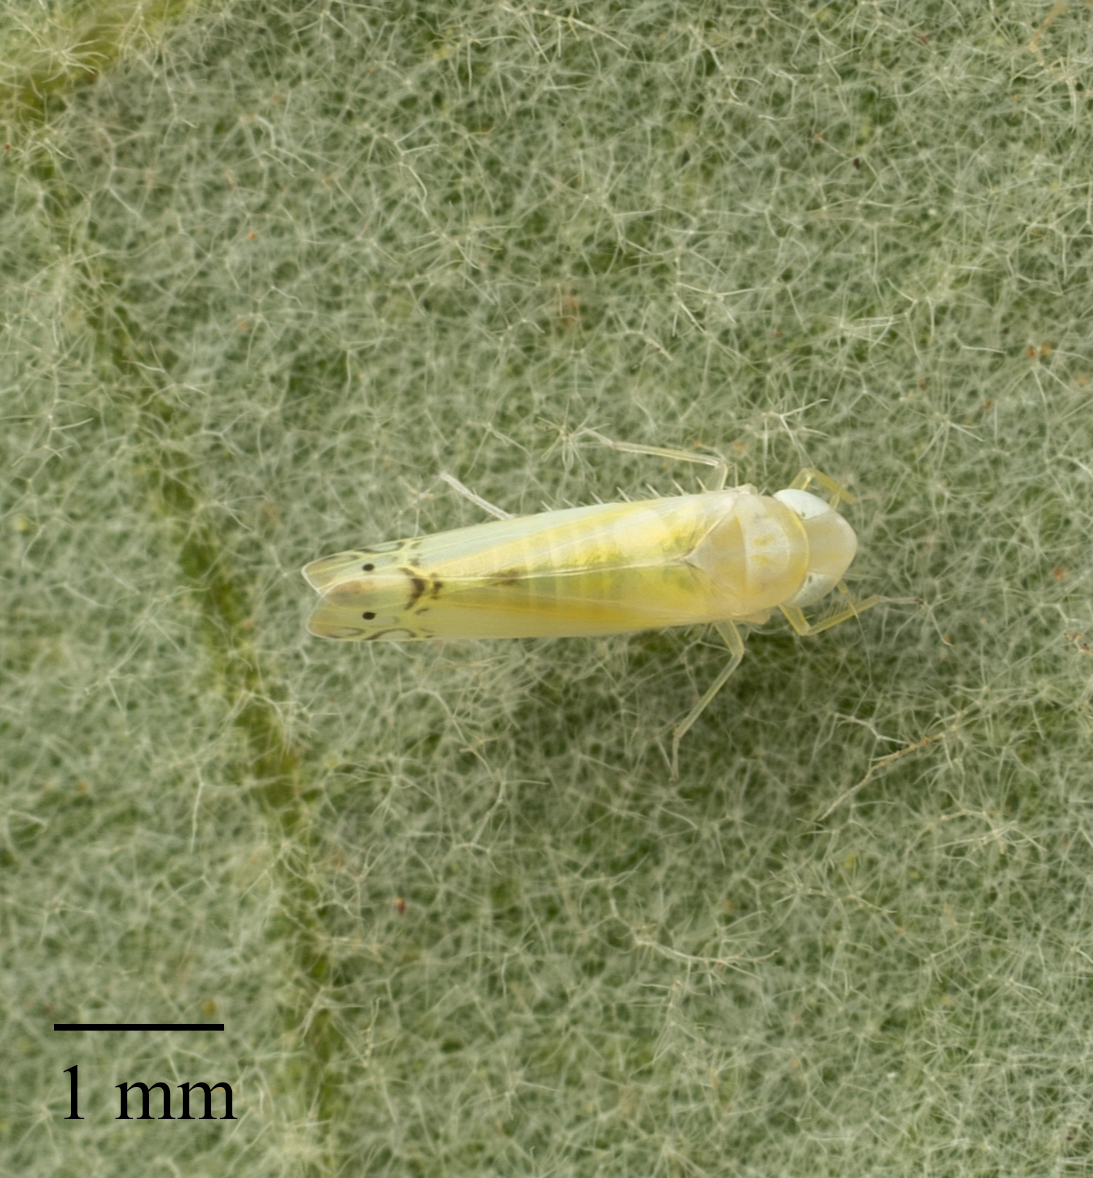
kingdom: Animalia
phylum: Arthropoda
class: Insecta
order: Hemiptera
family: Cicadellidae
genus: Alconeura
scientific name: Alconeura quadrimaculata
